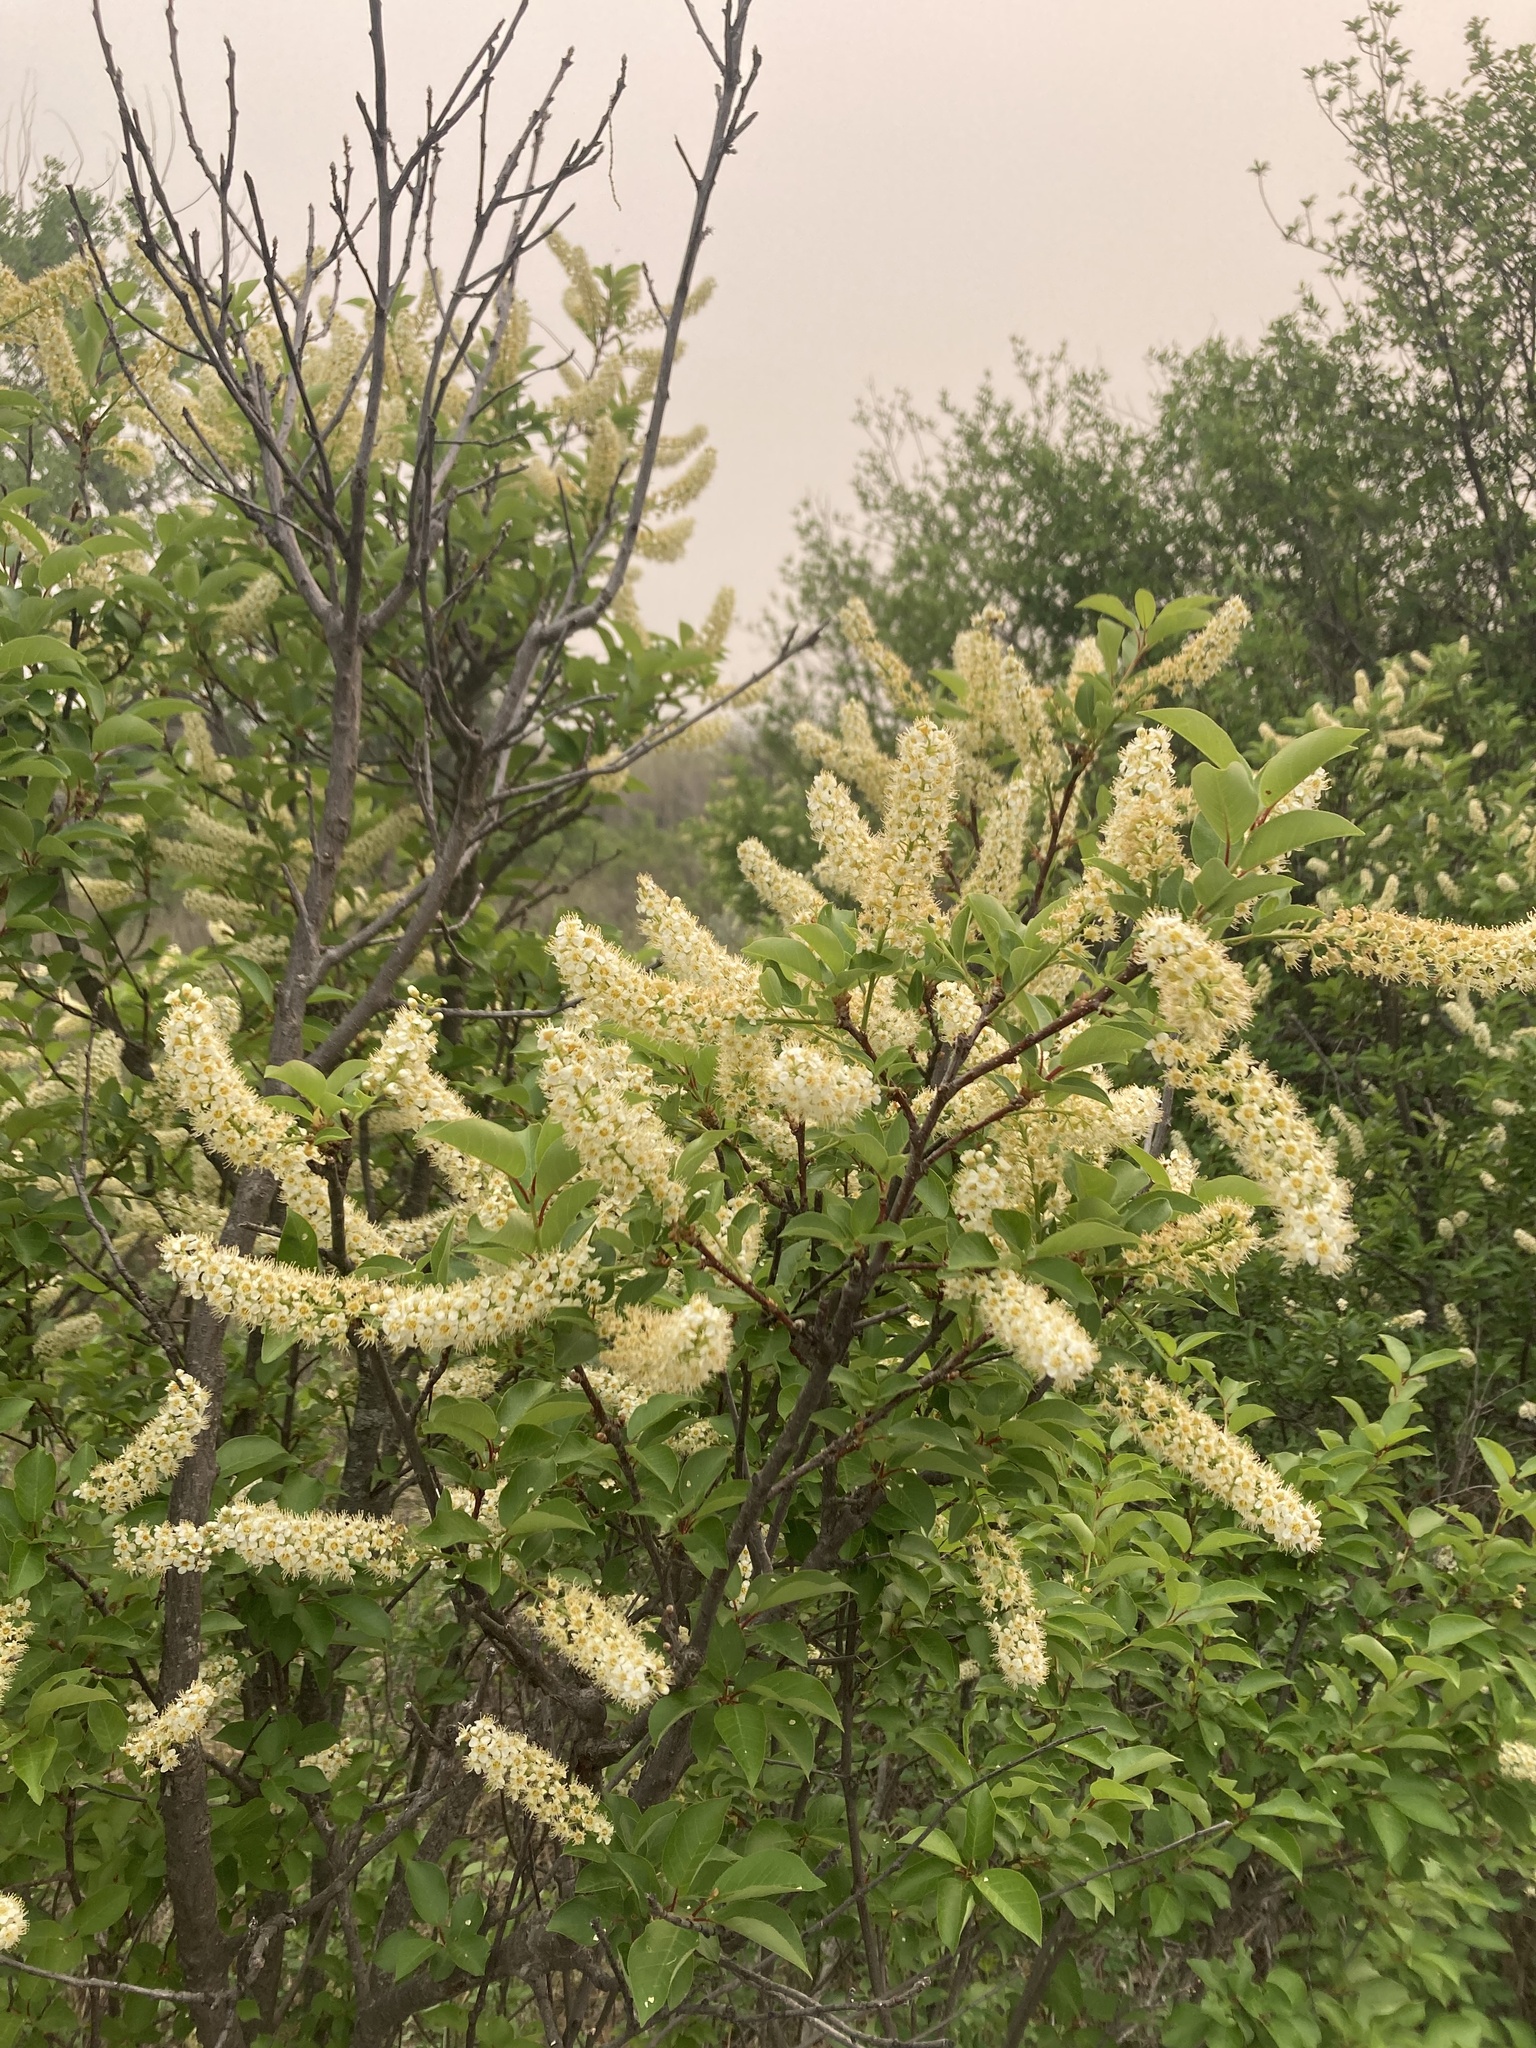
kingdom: Plantae
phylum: Tracheophyta
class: Magnoliopsida
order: Rosales
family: Rosaceae
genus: Prunus
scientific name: Prunus virginiana
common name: Chokecherry
